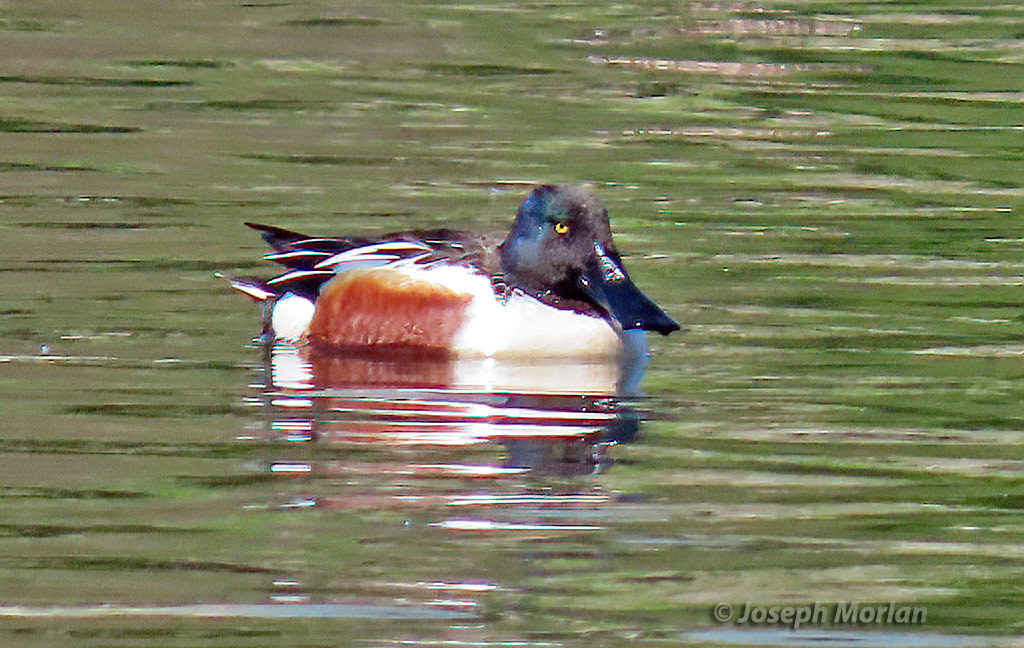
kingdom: Animalia
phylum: Chordata
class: Aves
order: Anseriformes
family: Anatidae
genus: Spatula
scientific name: Spatula clypeata
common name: Northern shoveler
